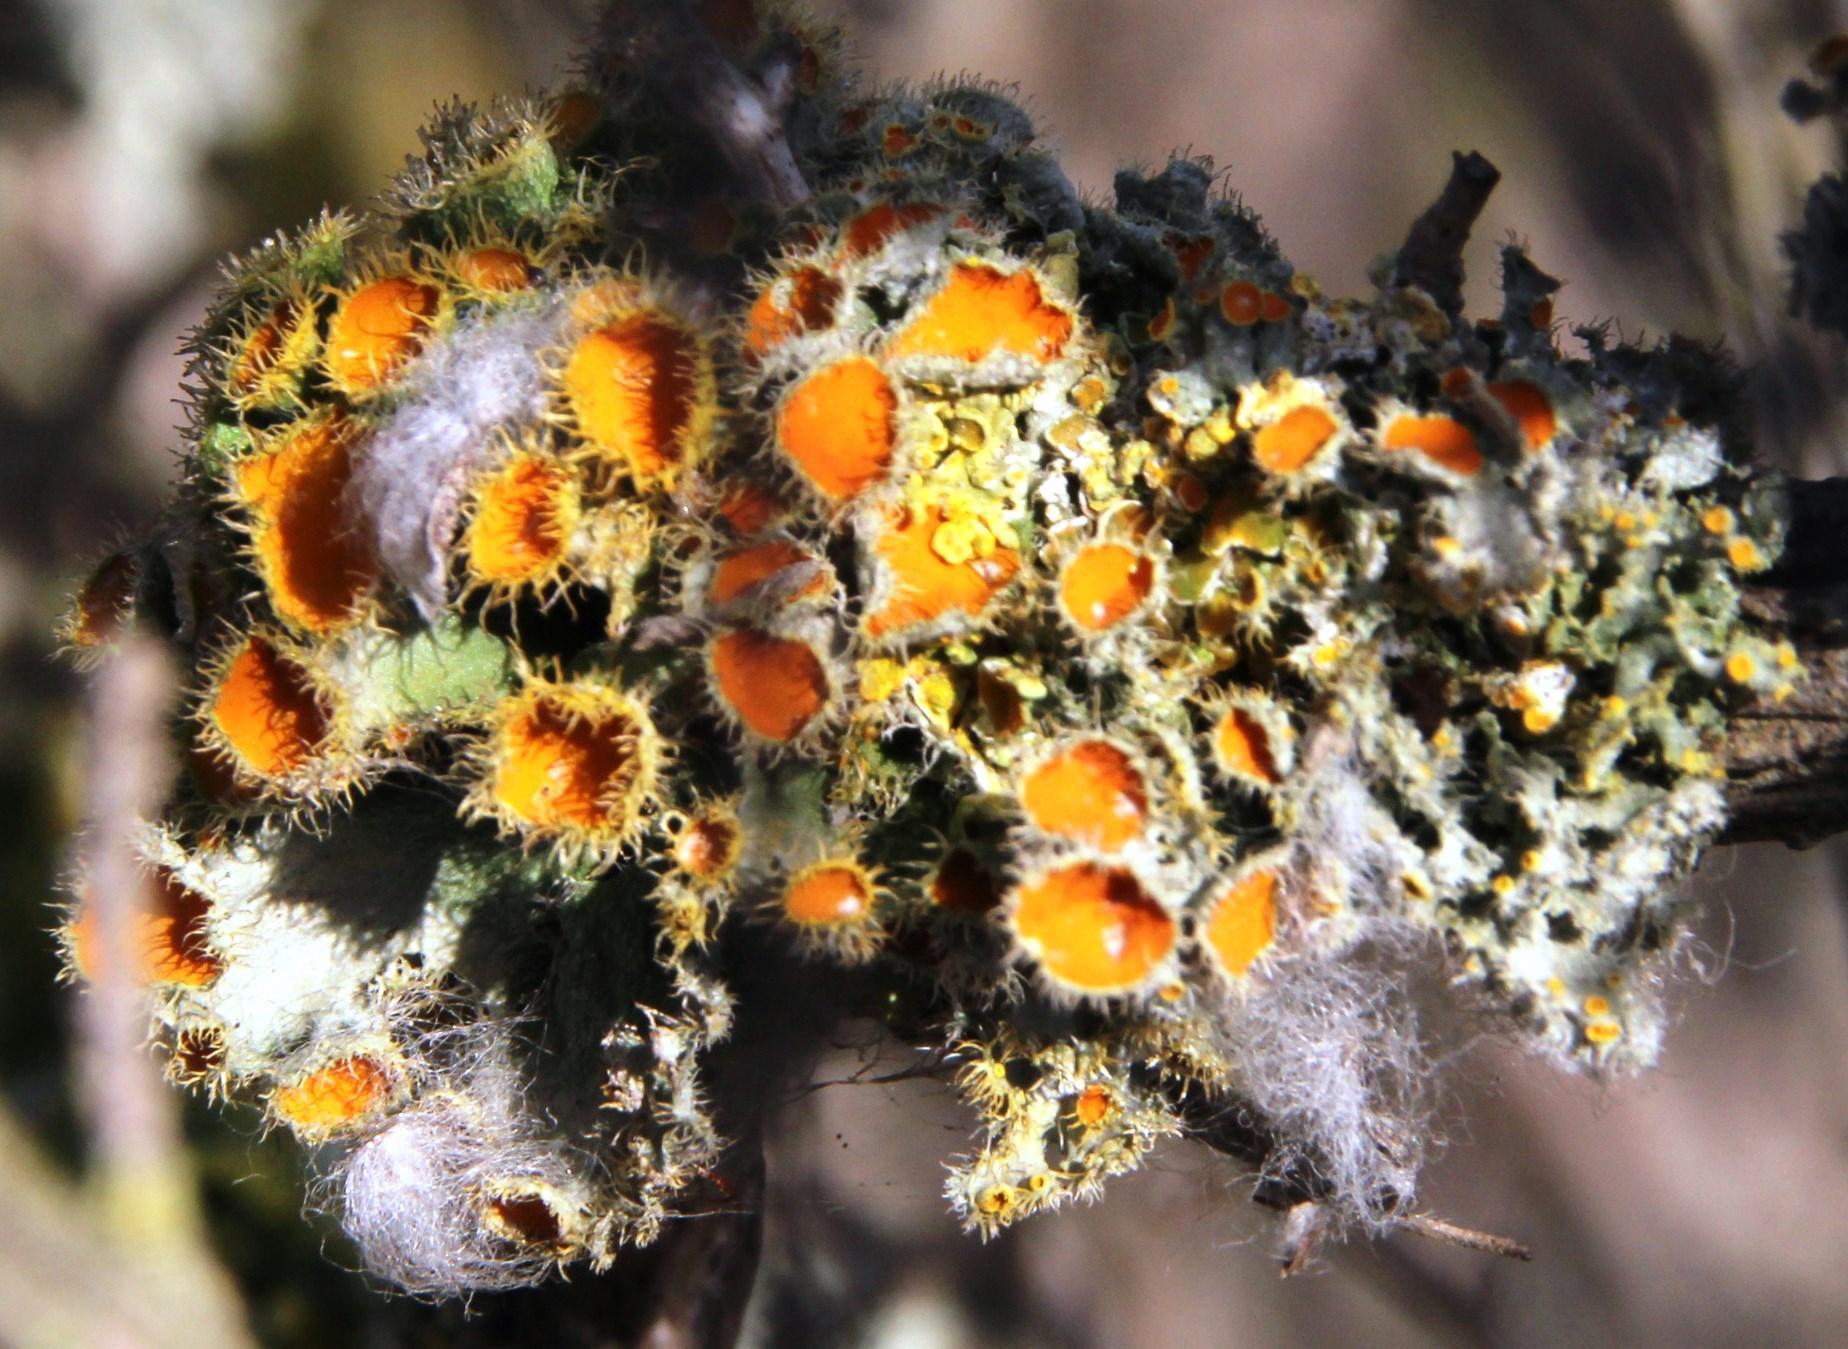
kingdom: Fungi
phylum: Ascomycota
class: Lecanoromycetes
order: Teloschistales
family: Teloschistaceae
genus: Niorma
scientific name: Niorma chrysophthalma
